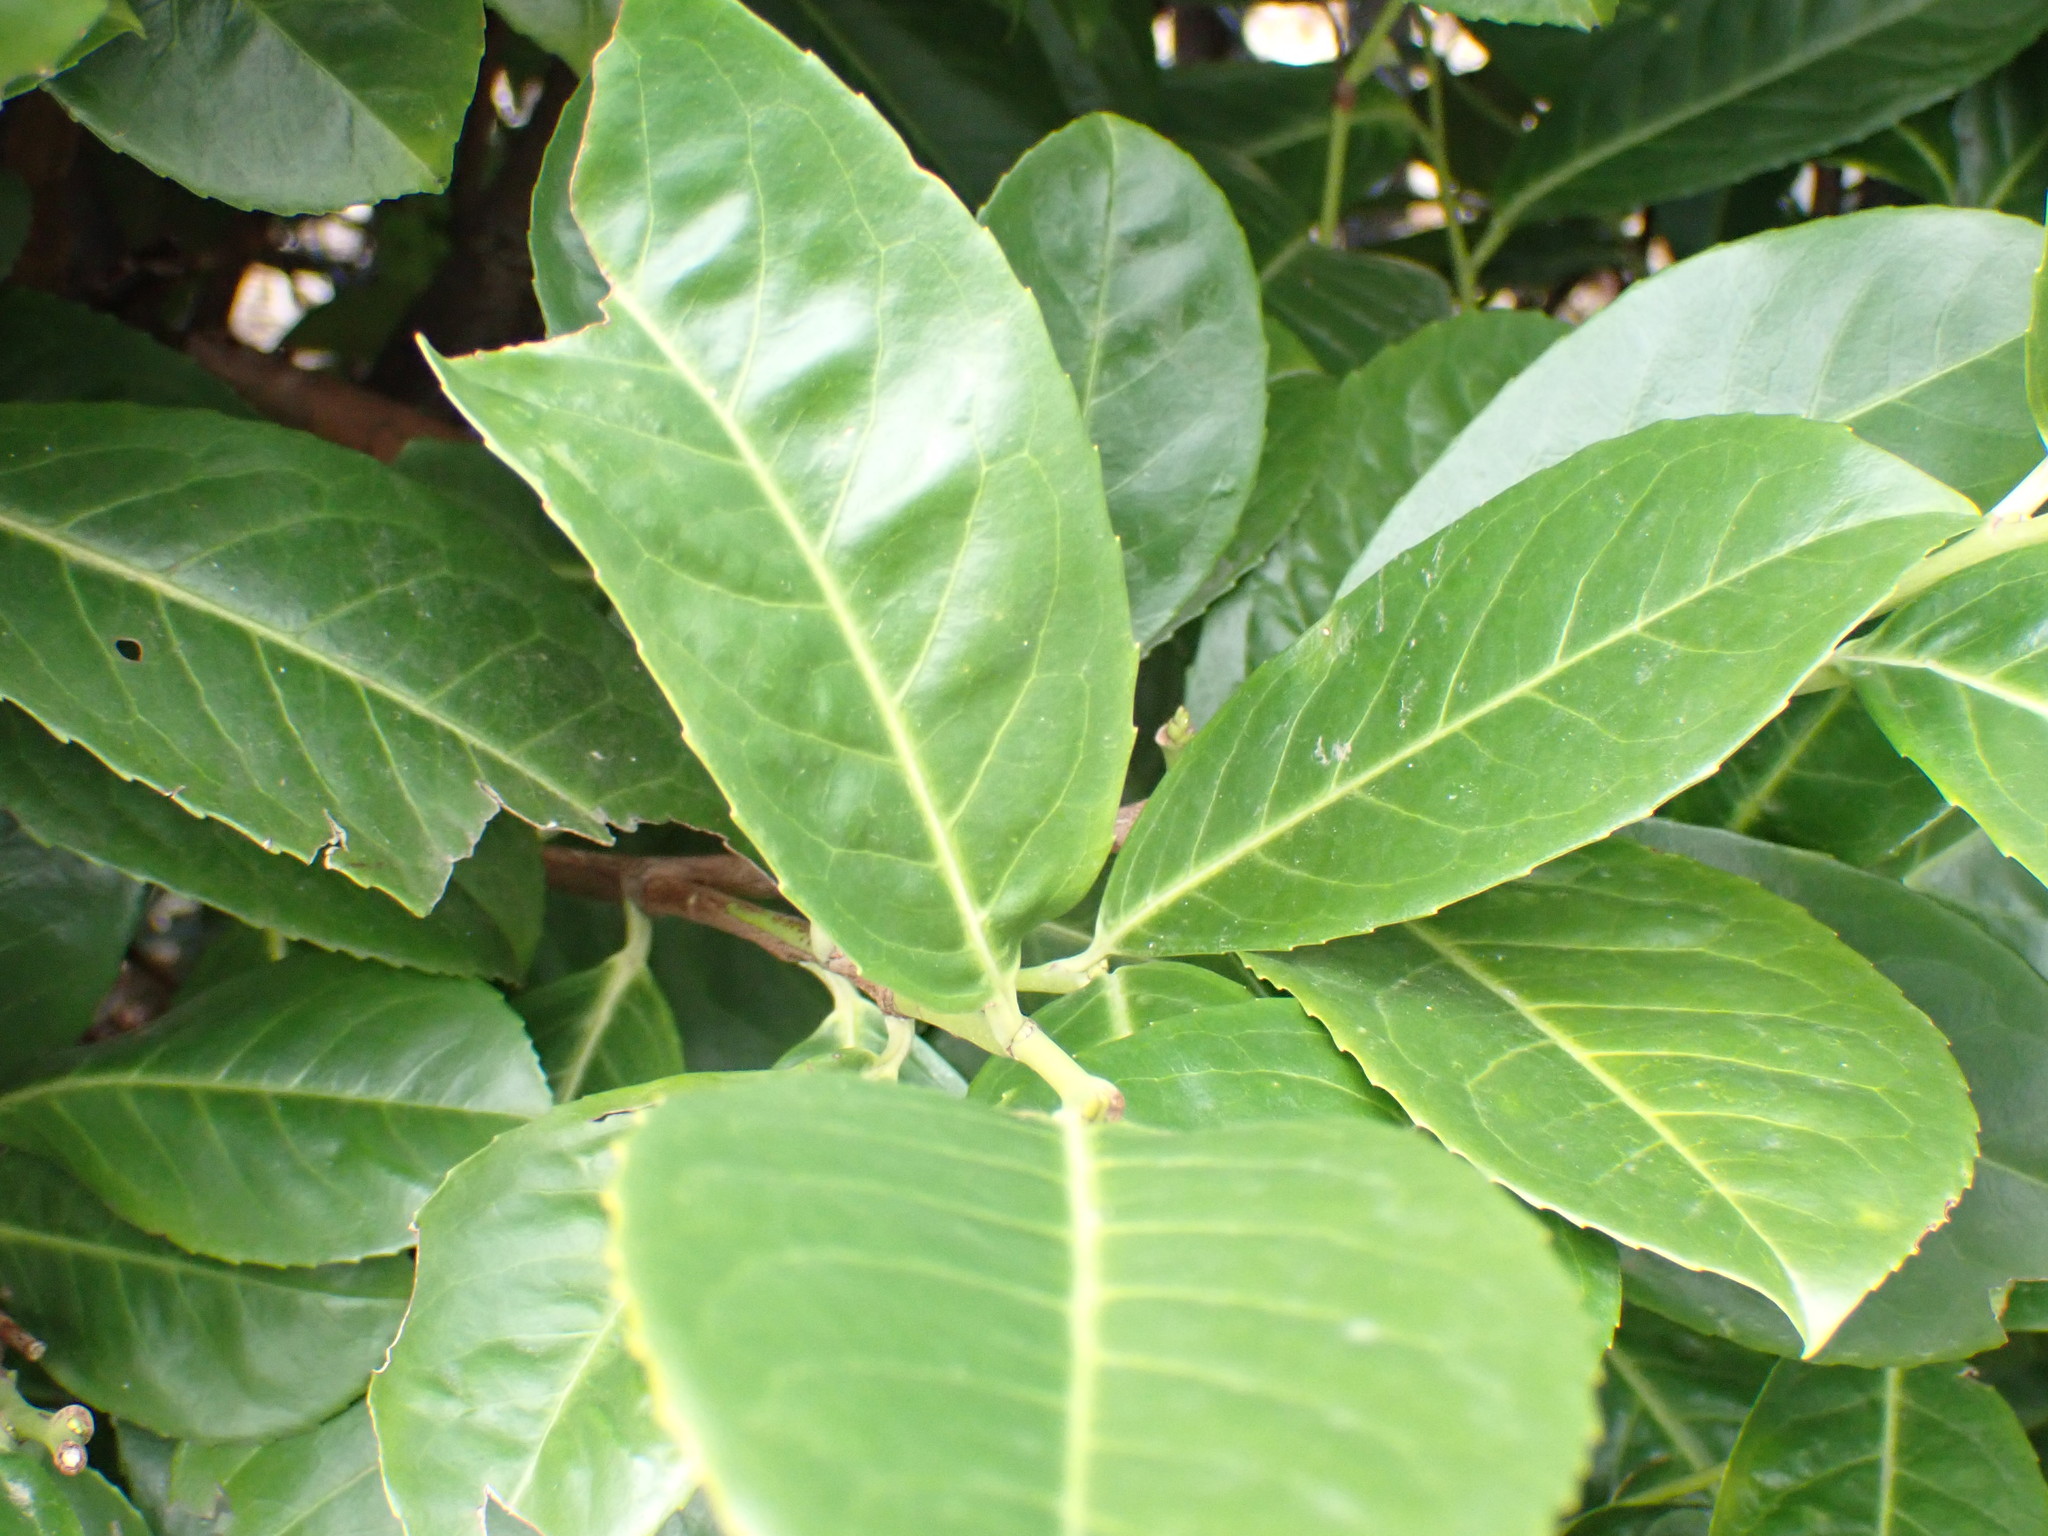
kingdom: Plantae
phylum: Tracheophyta
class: Magnoliopsida
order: Rosales
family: Rosaceae
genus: Prunus
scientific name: Prunus laurocerasus
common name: Cherry laurel
